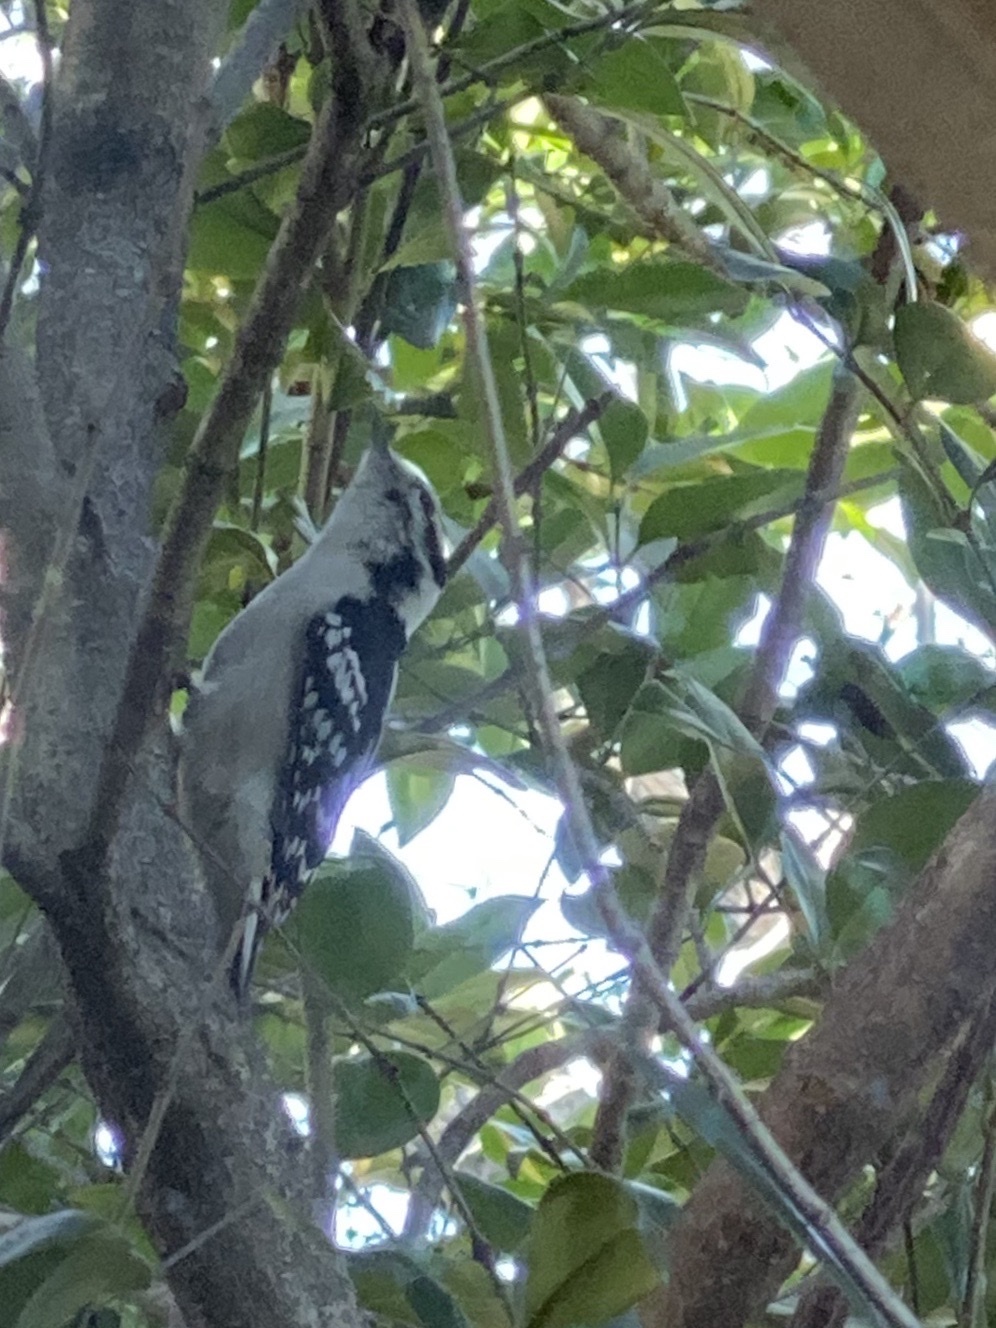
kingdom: Animalia
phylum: Chordata
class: Aves
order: Piciformes
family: Picidae
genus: Dryobates
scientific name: Dryobates pubescens
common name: Downy woodpecker
